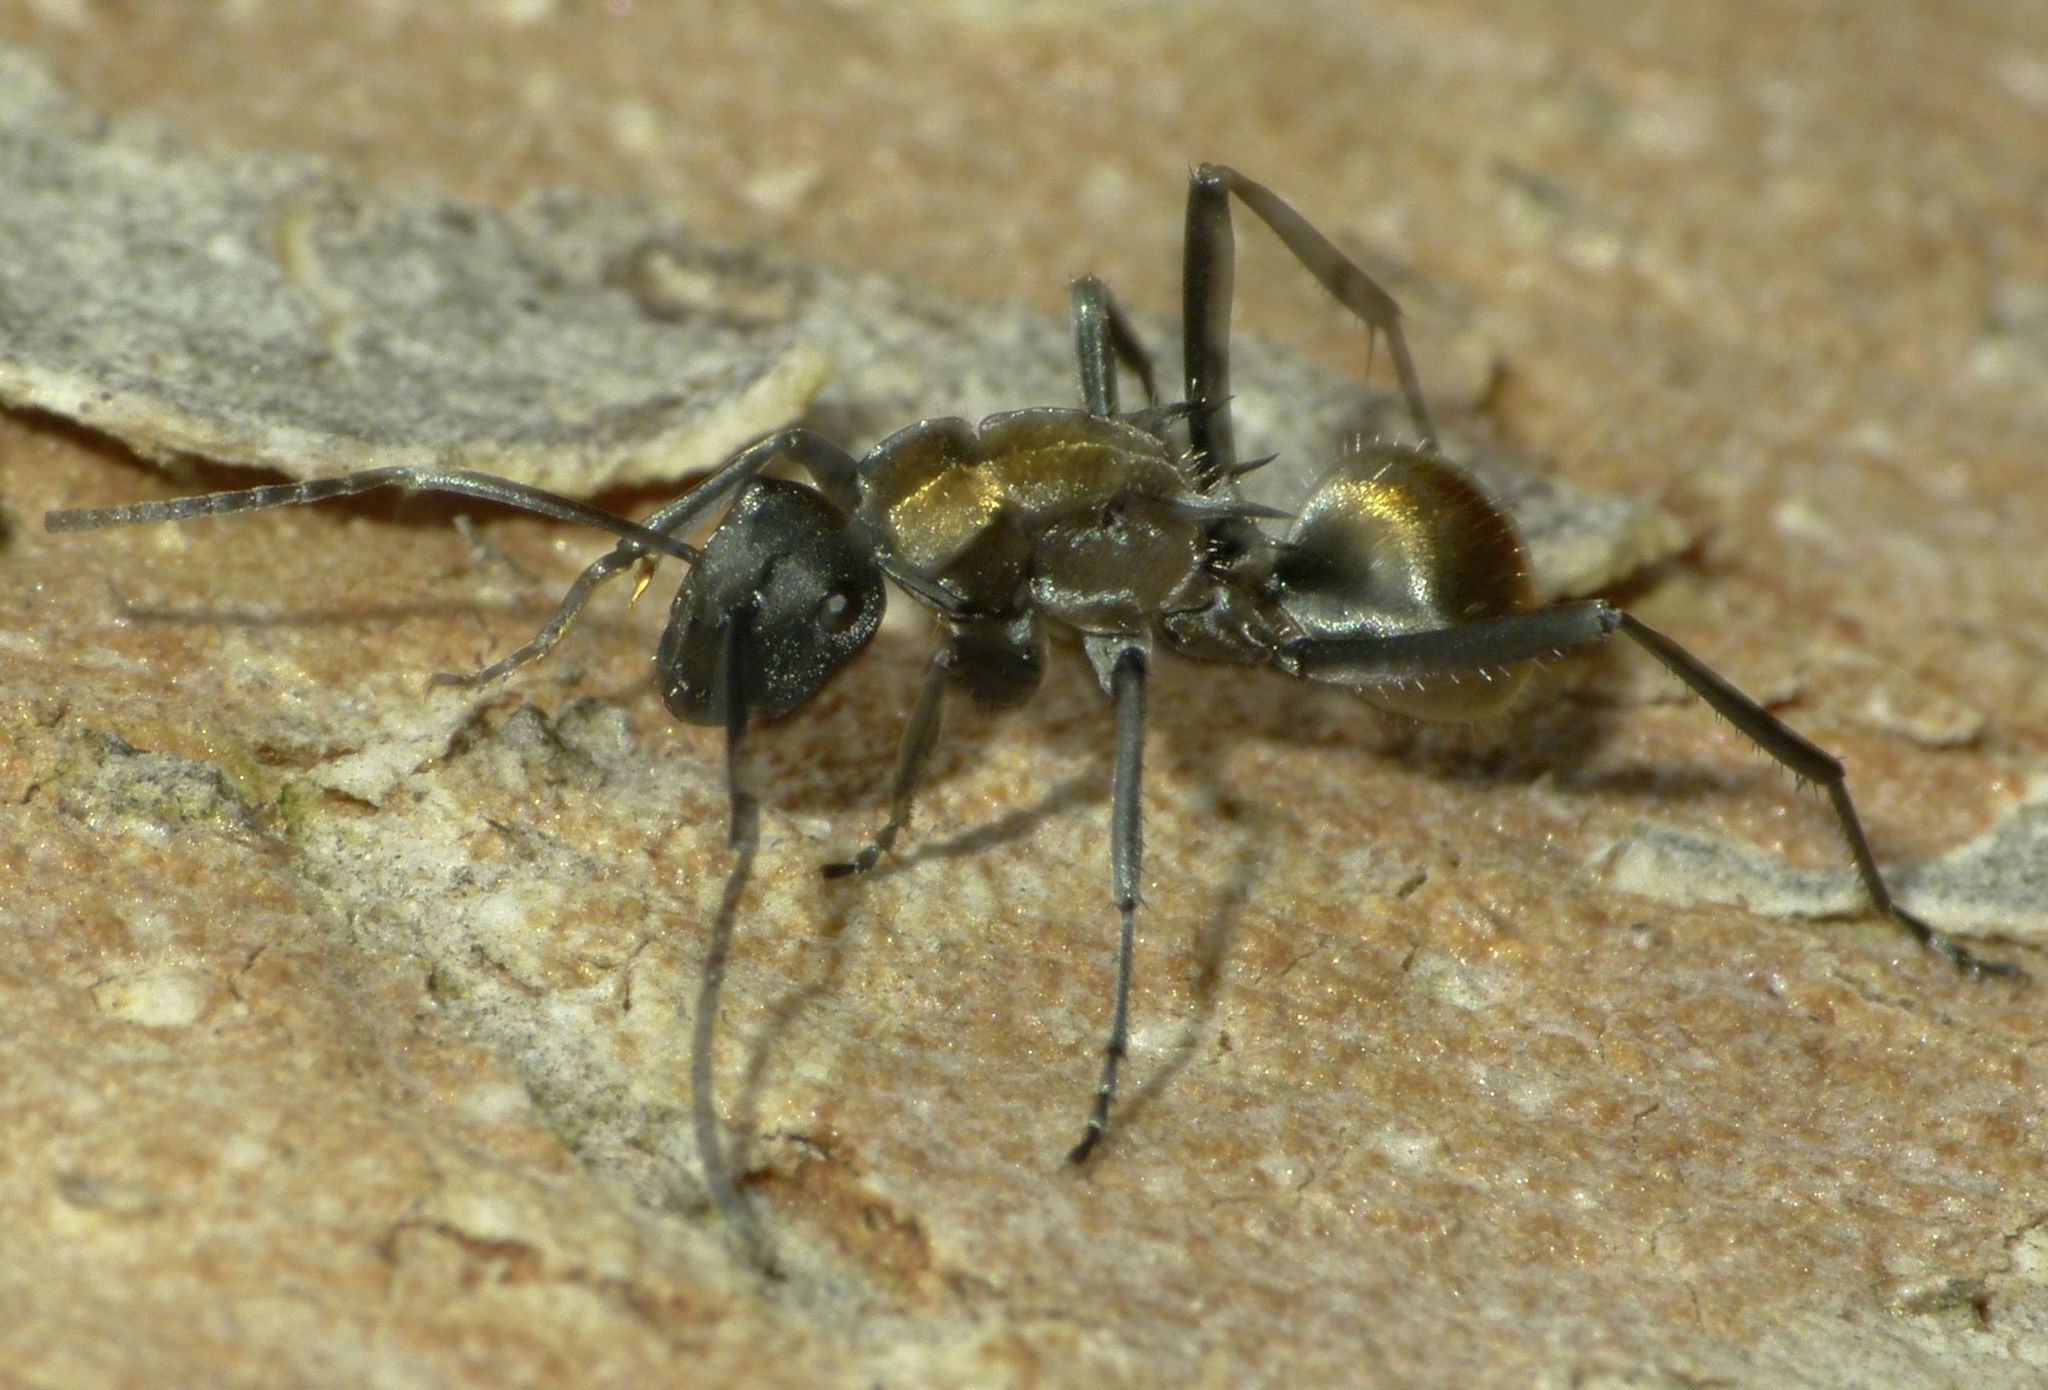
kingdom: Animalia
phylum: Arthropoda
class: Insecta
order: Hymenoptera
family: Formicidae
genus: Polyrhachis
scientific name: Polyrhachis ammon
